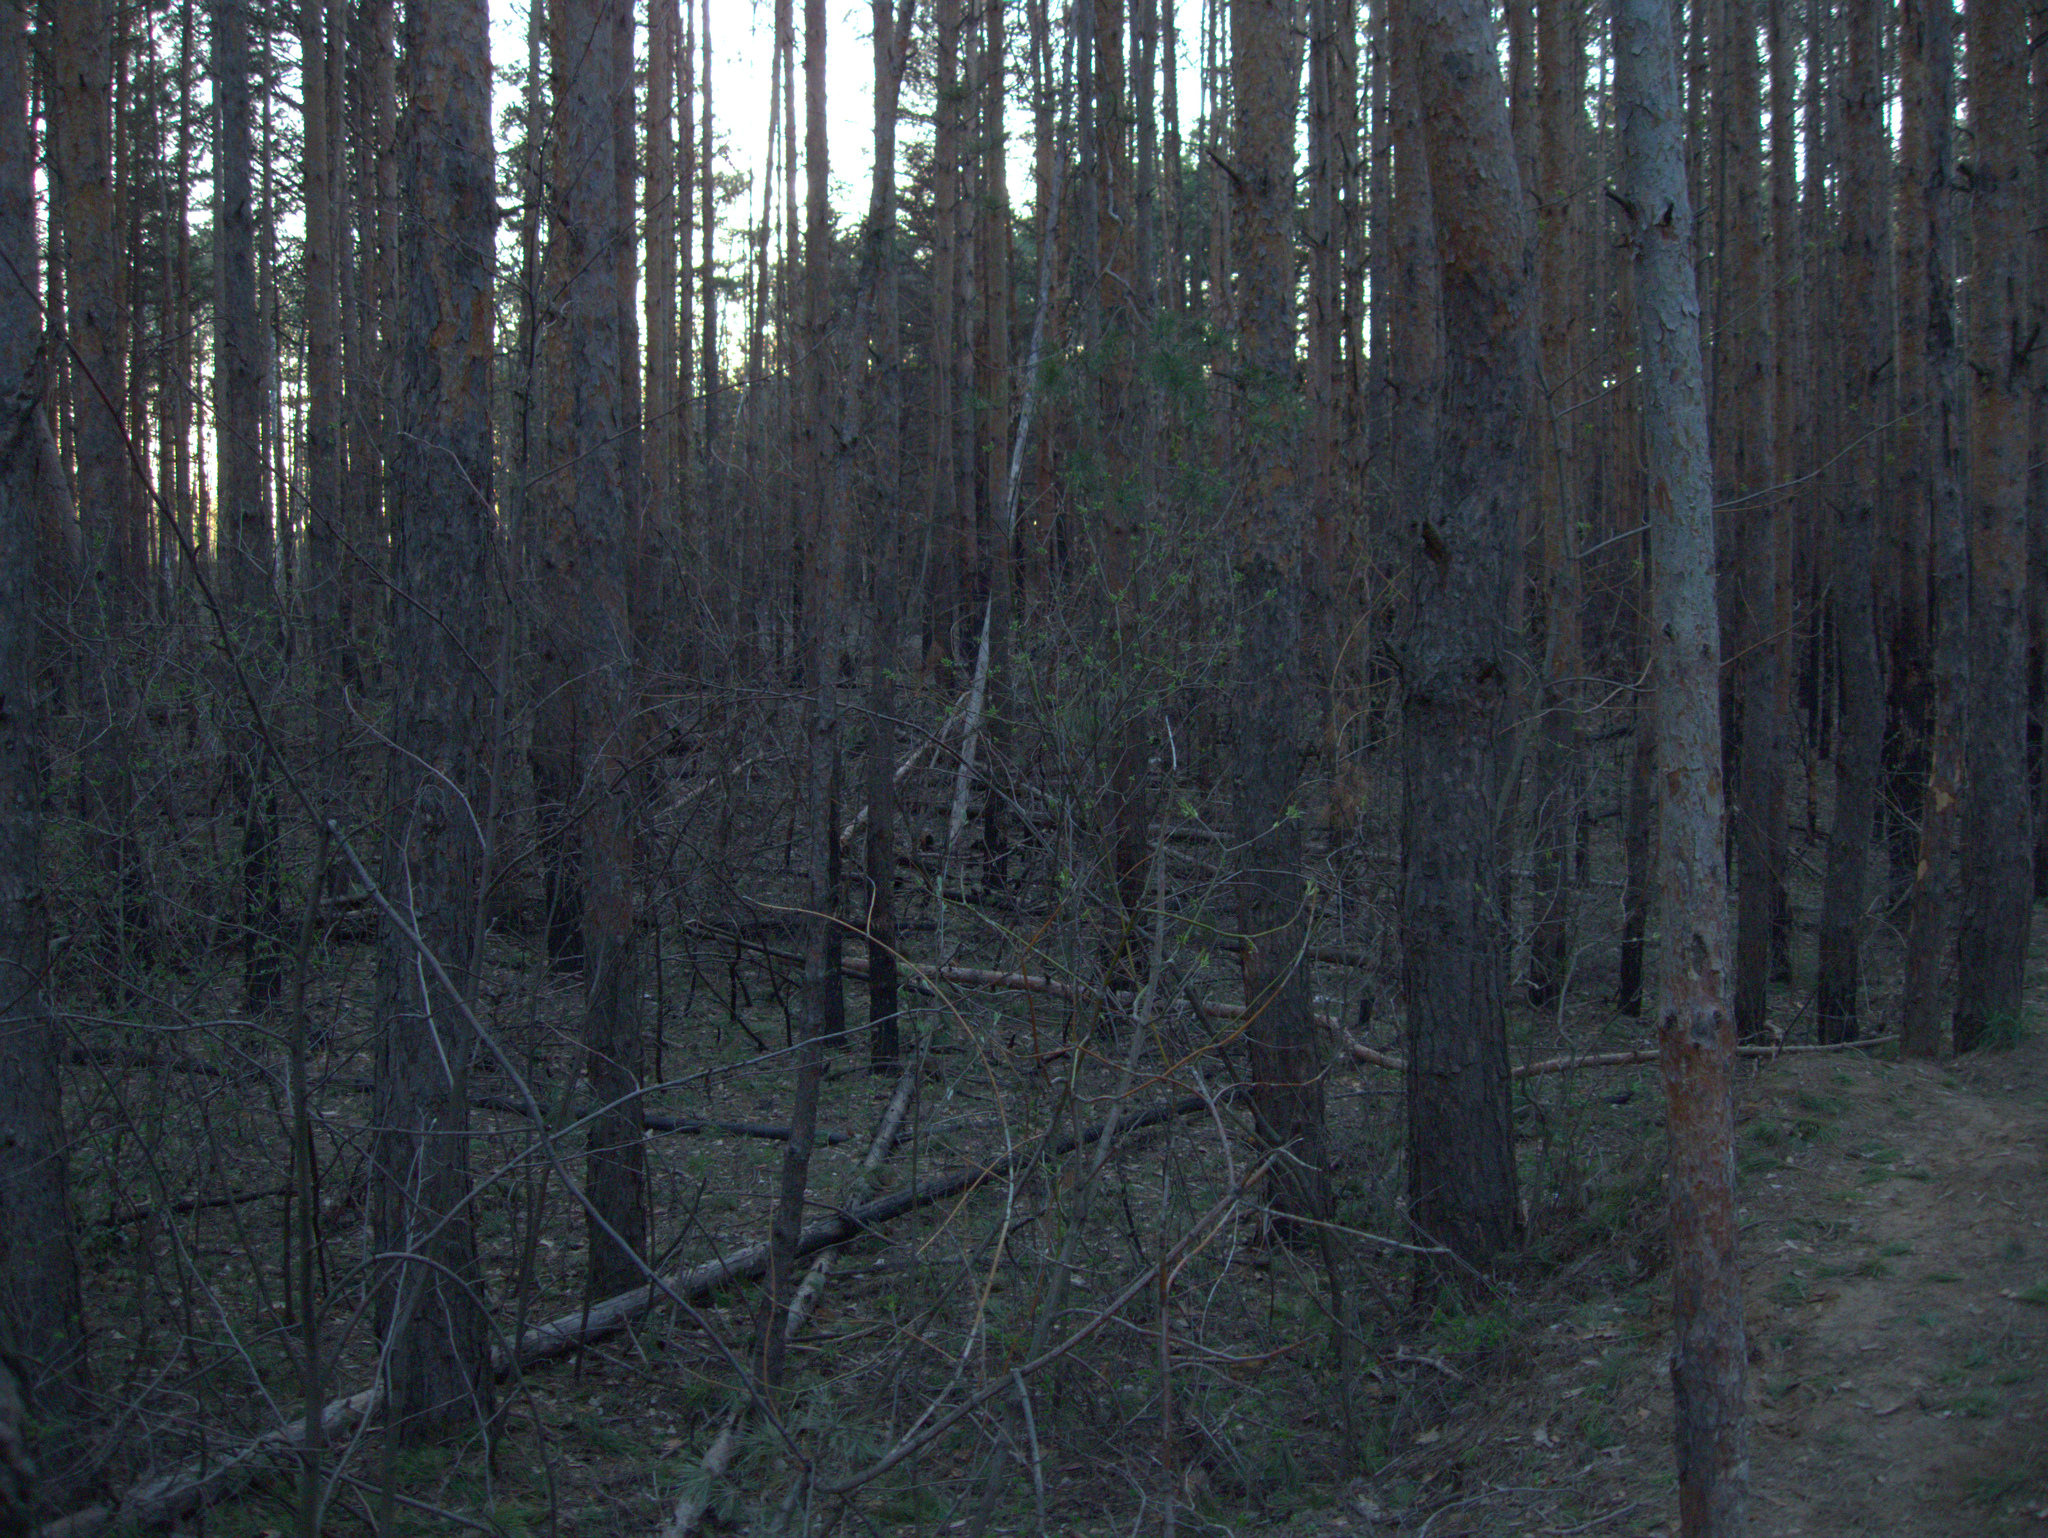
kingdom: Plantae
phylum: Tracheophyta
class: Magnoliopsida
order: Sapindales
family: Sapindaceae
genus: Acer
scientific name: Acer negundo
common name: Ashleaf maple
